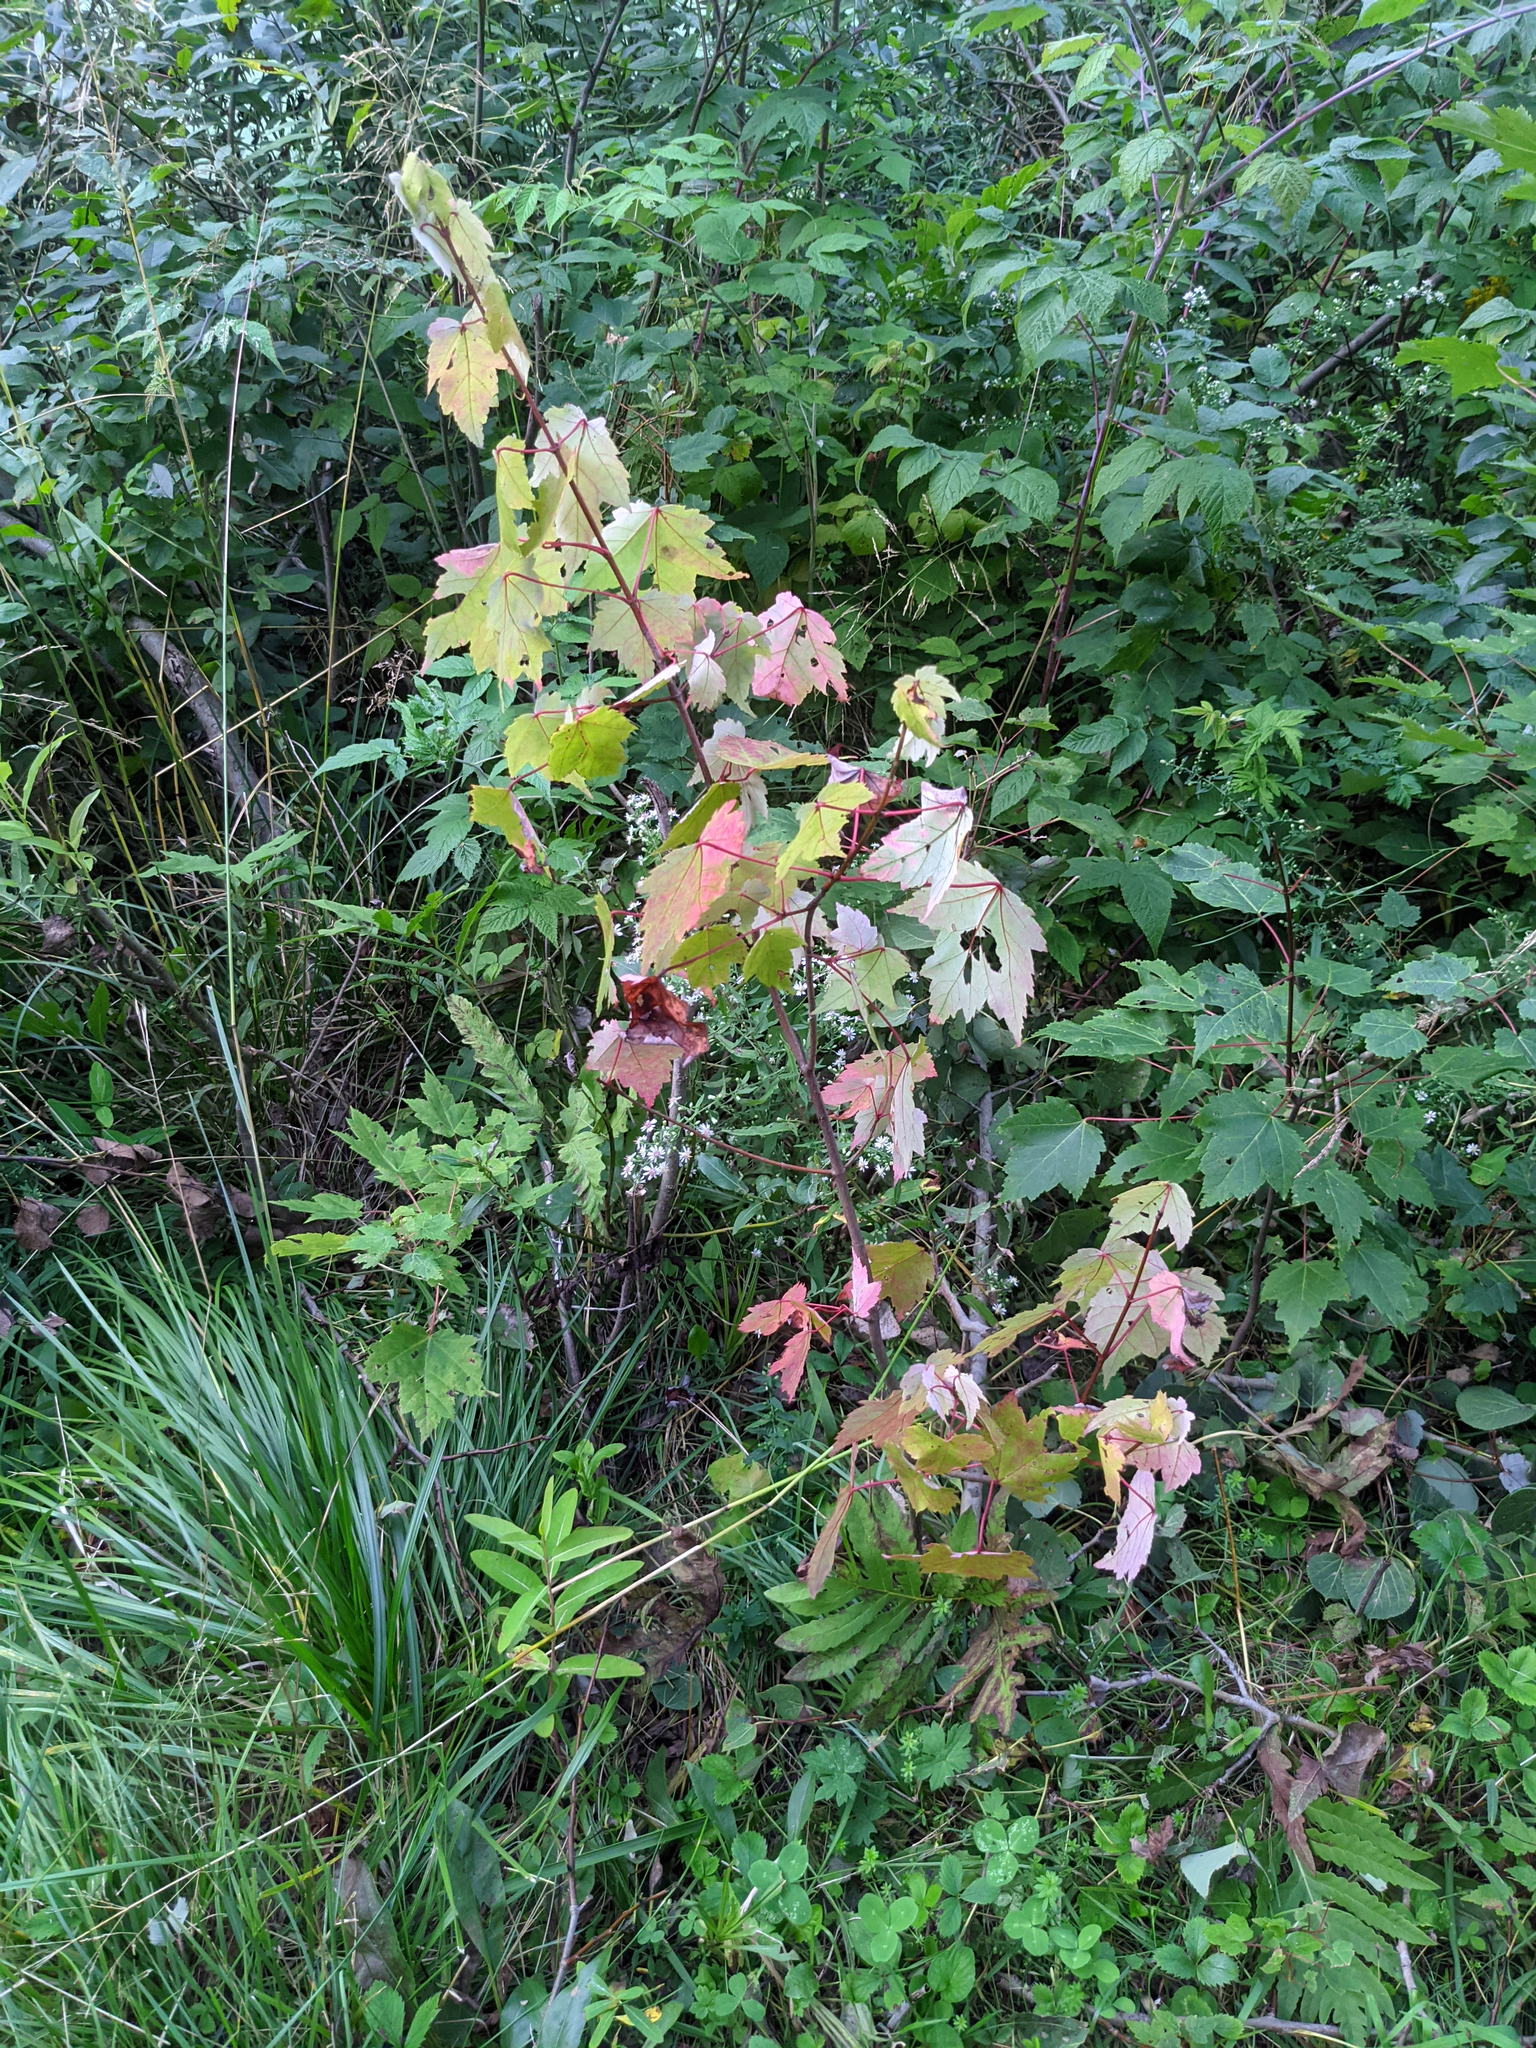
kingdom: Plantae
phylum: Tracheophyta
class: Magnoliopsida
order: Sapindales
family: Sapindaceae
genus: Acer
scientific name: Acer rubrum
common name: Red maple
